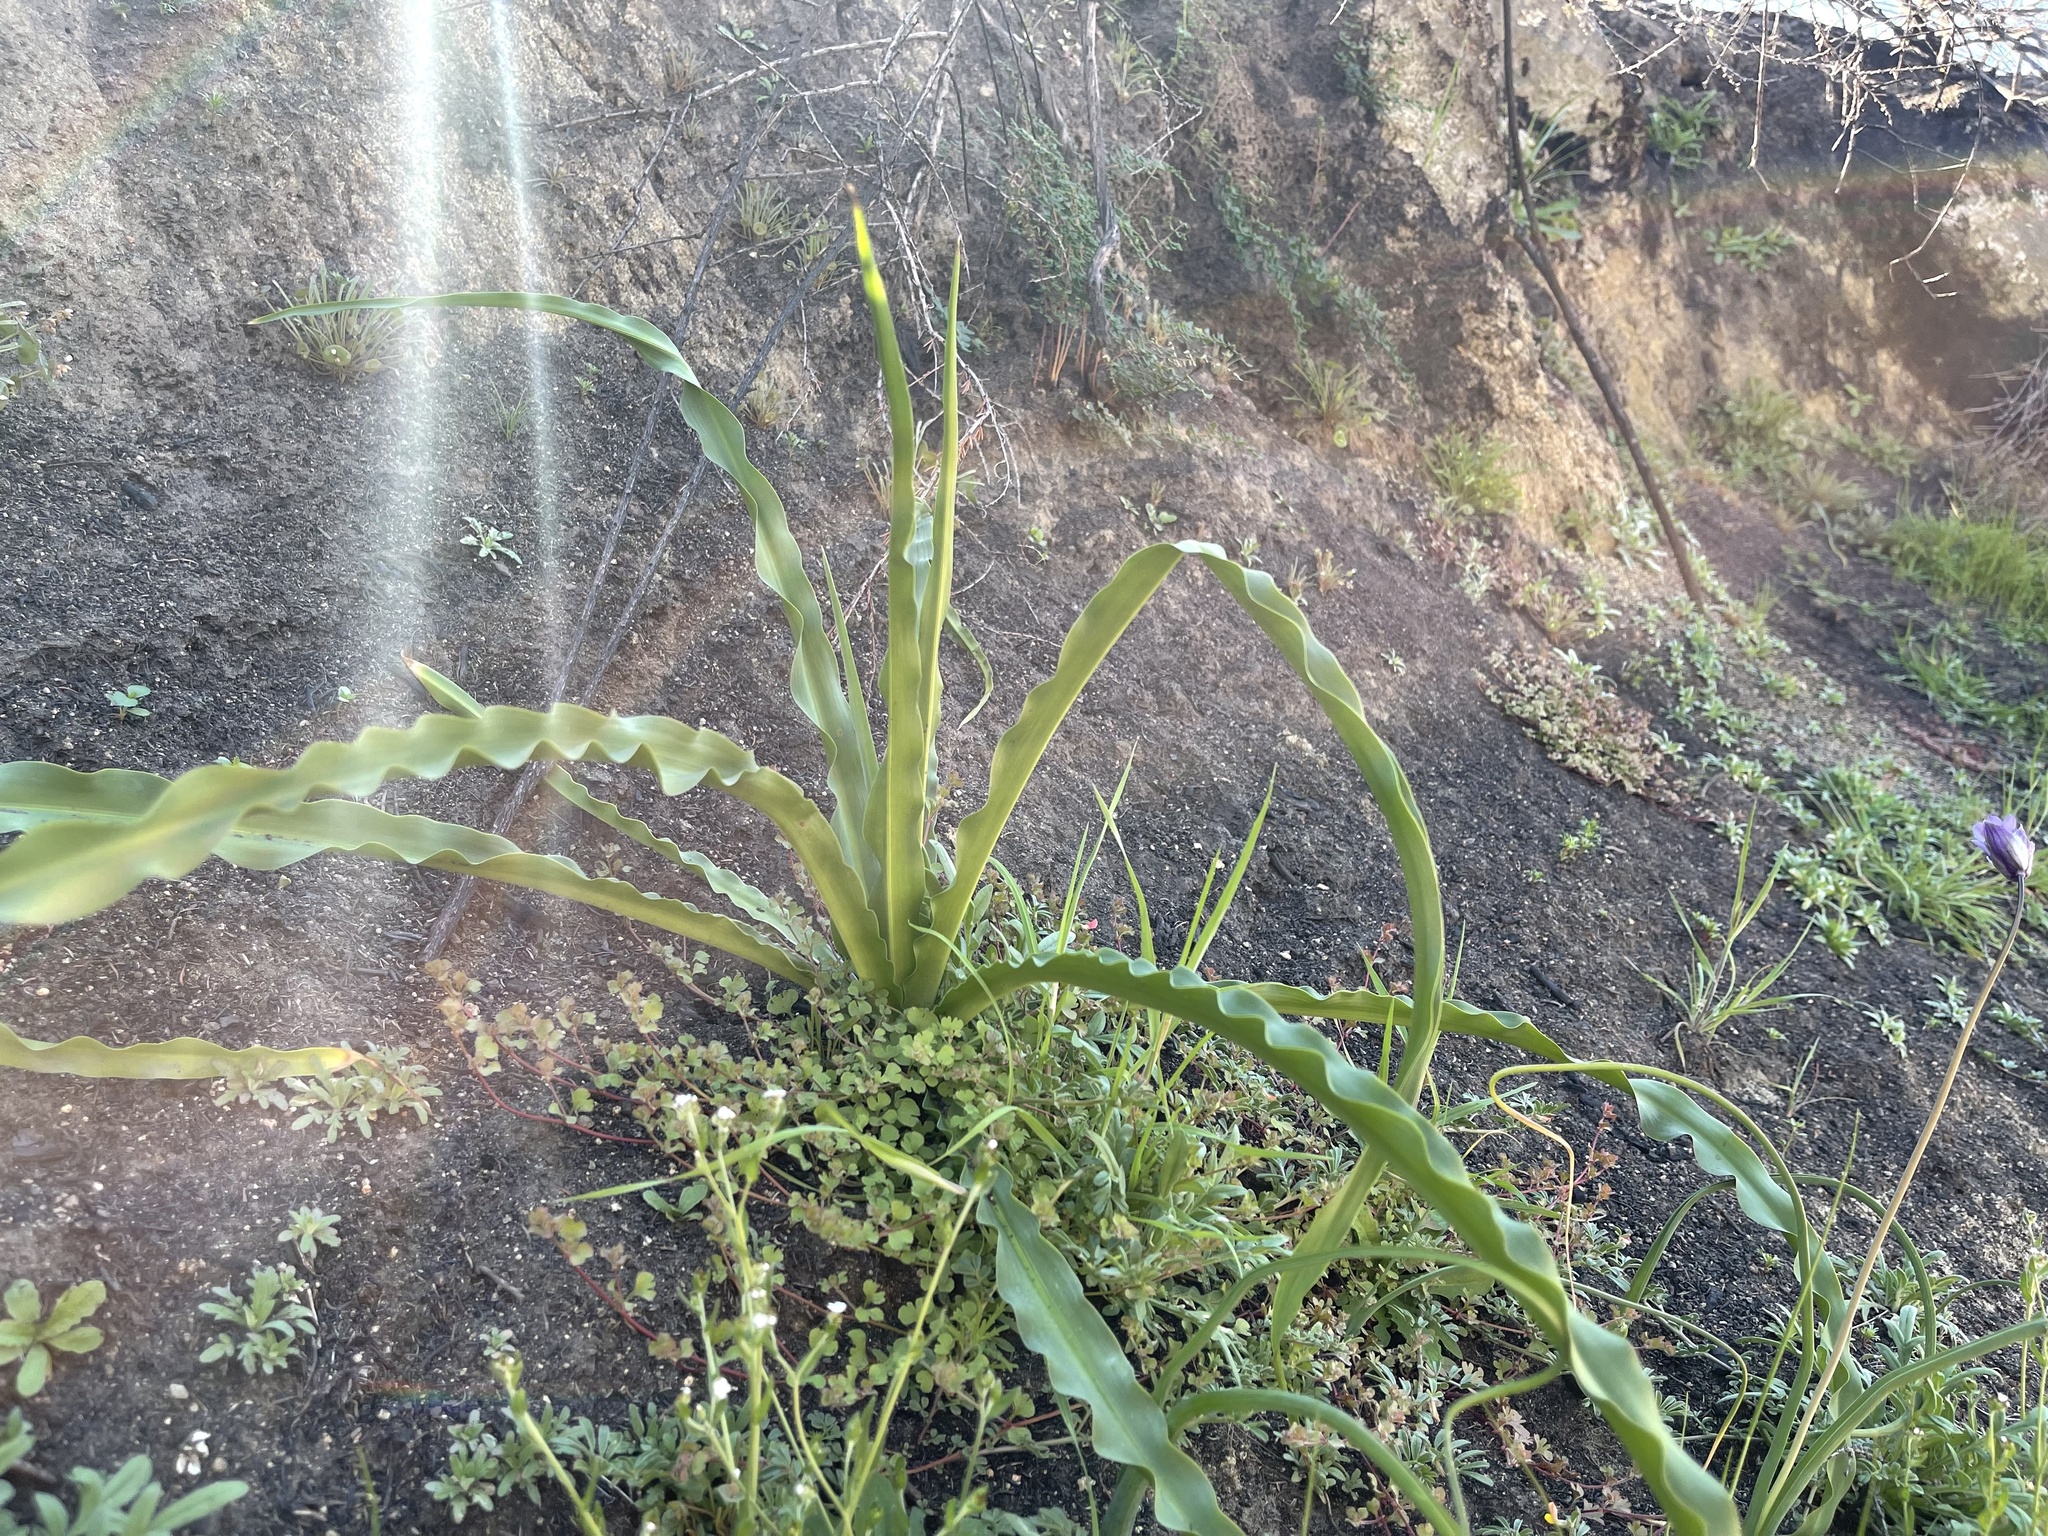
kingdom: Plantae
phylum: Tracheophyta
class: Liliopsida
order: Asparagales
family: Asparagaceae
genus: Chlorogalum
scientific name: Chlorogalum pomeridianum
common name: Amole
